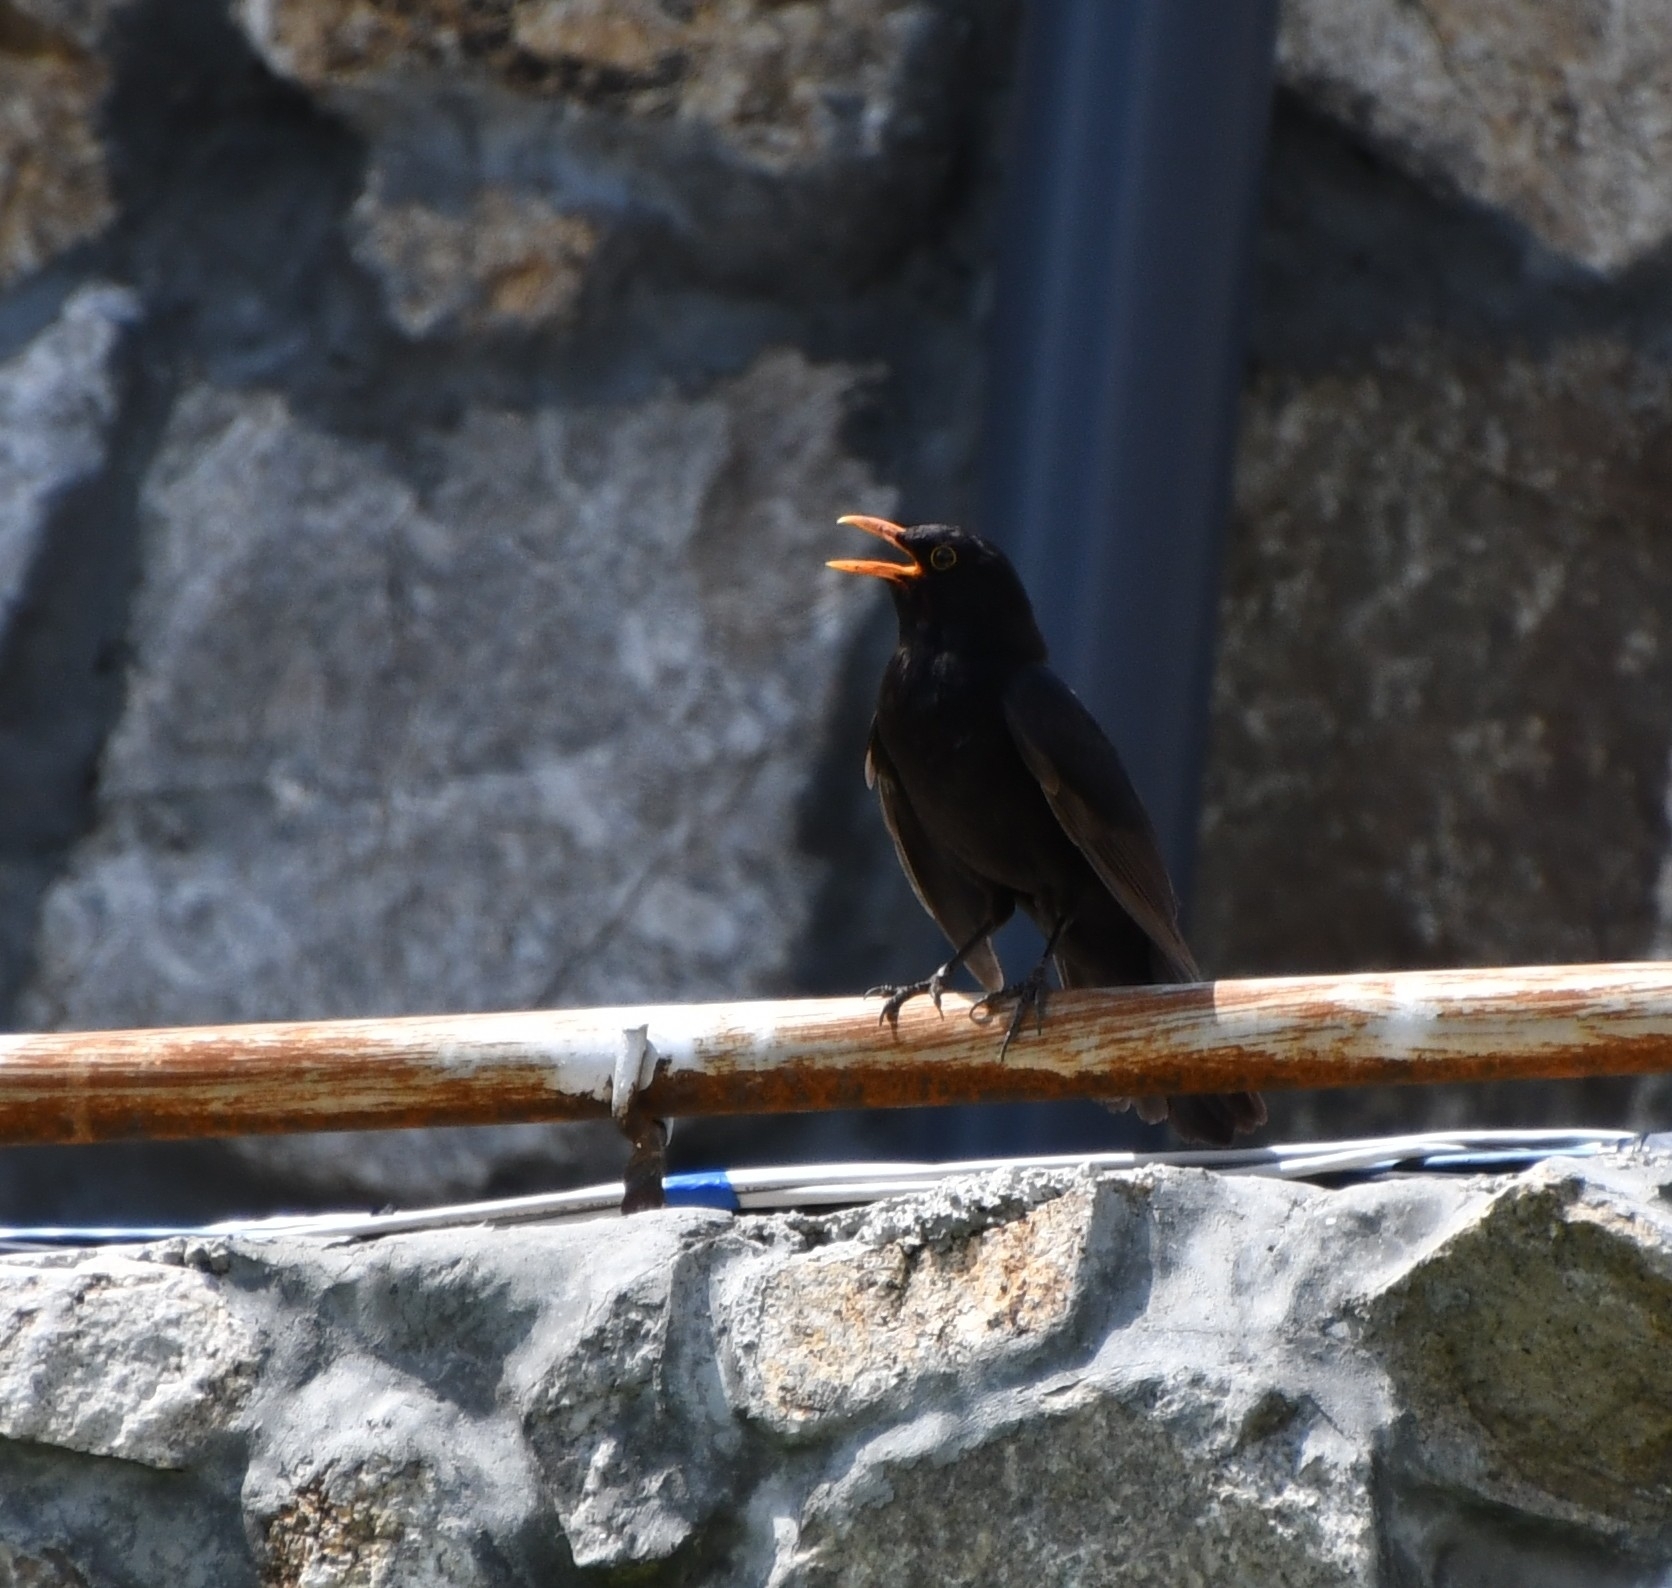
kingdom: Animalia
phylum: Chordata
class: Aves
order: Passeriformes
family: Turdidae
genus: Turdus
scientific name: Turdus merula
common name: Common blackbird
